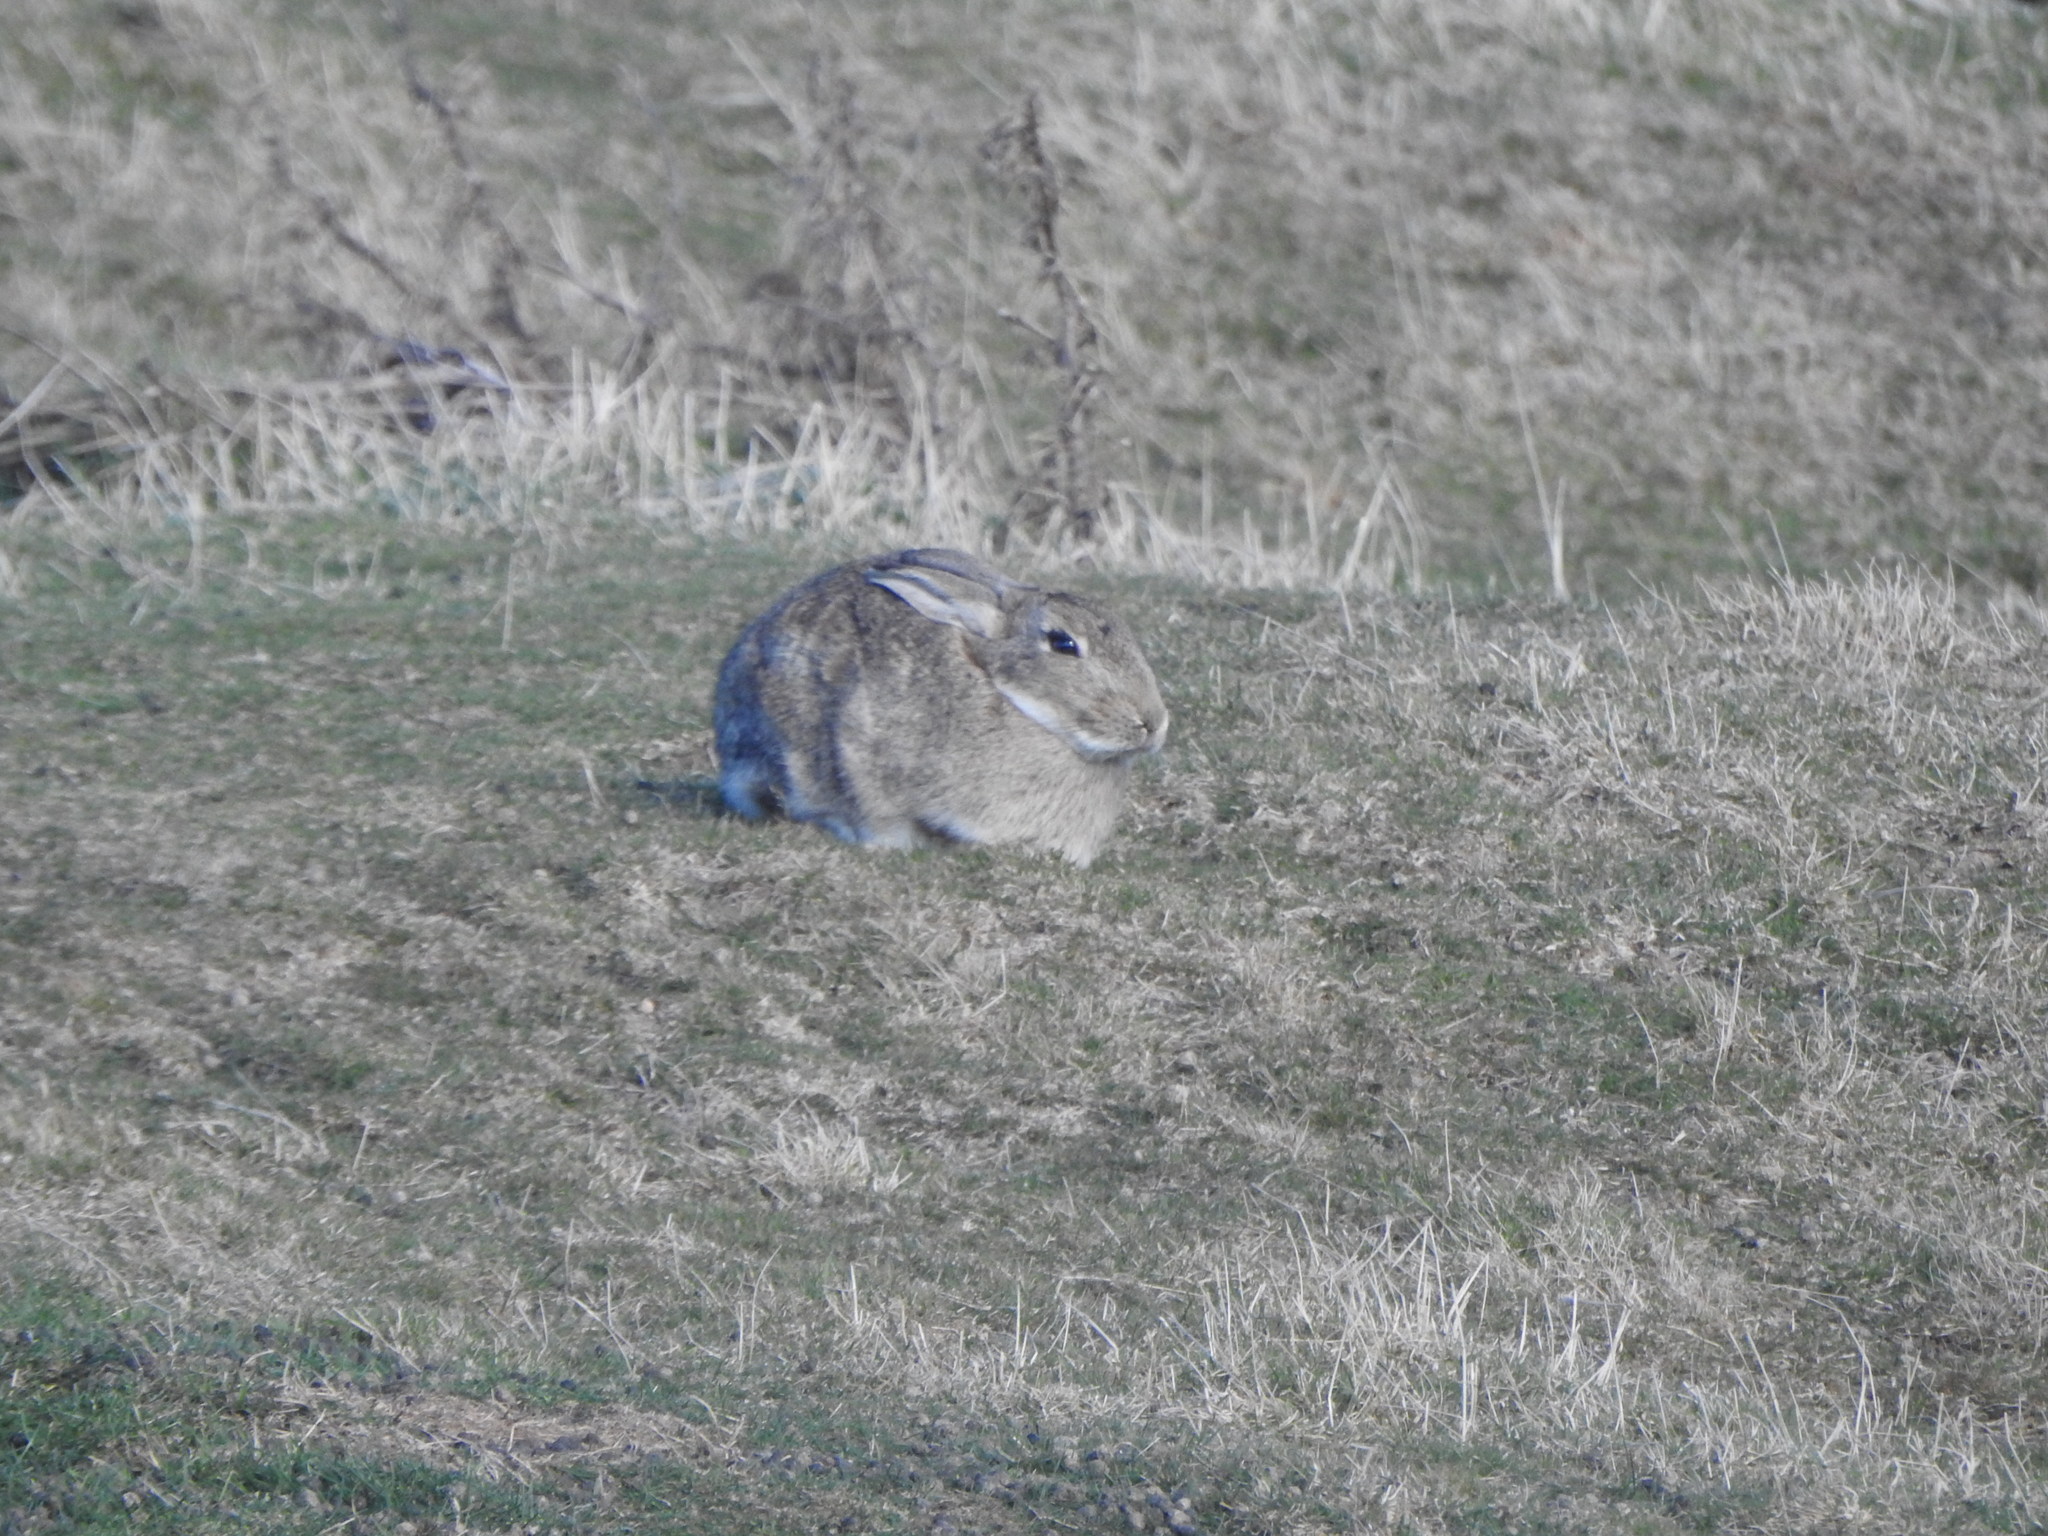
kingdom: Animalia
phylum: Chordata
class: Mammalia
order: Lagomorpha
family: Leporidae
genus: Oryctolagus
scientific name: Oryctolagus cuniculus
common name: European rabbit
